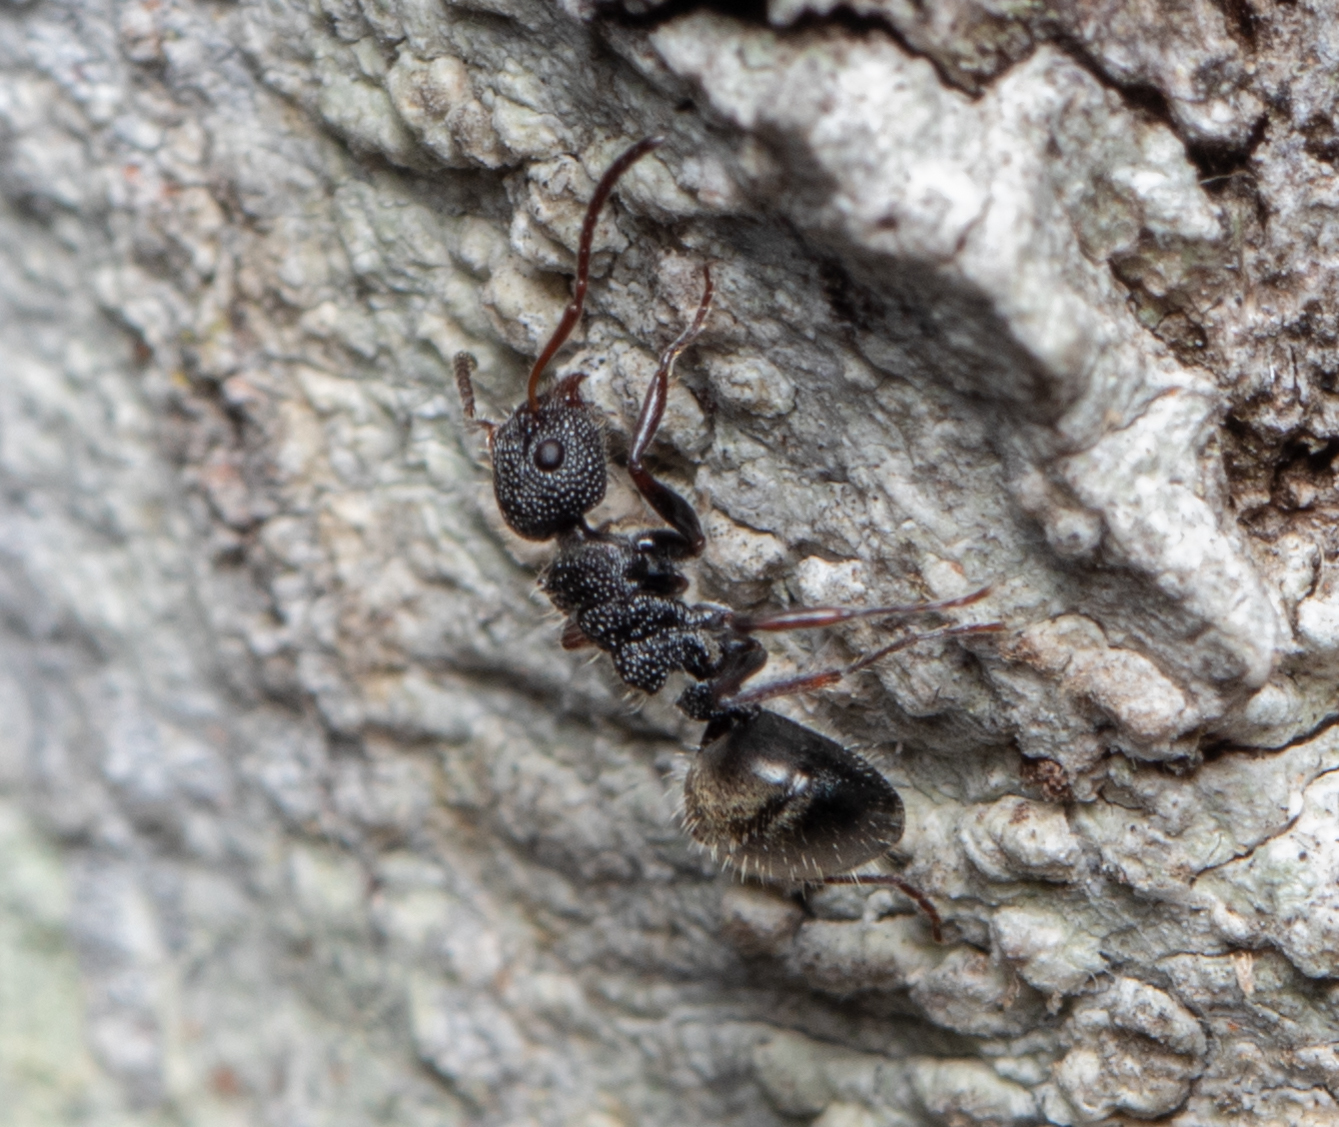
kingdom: Animalia
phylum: Arthropoda
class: Insecta
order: Hymenoptera
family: Formicidae
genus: Dolichoderus
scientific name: Dolichoderus scrobiculatus
